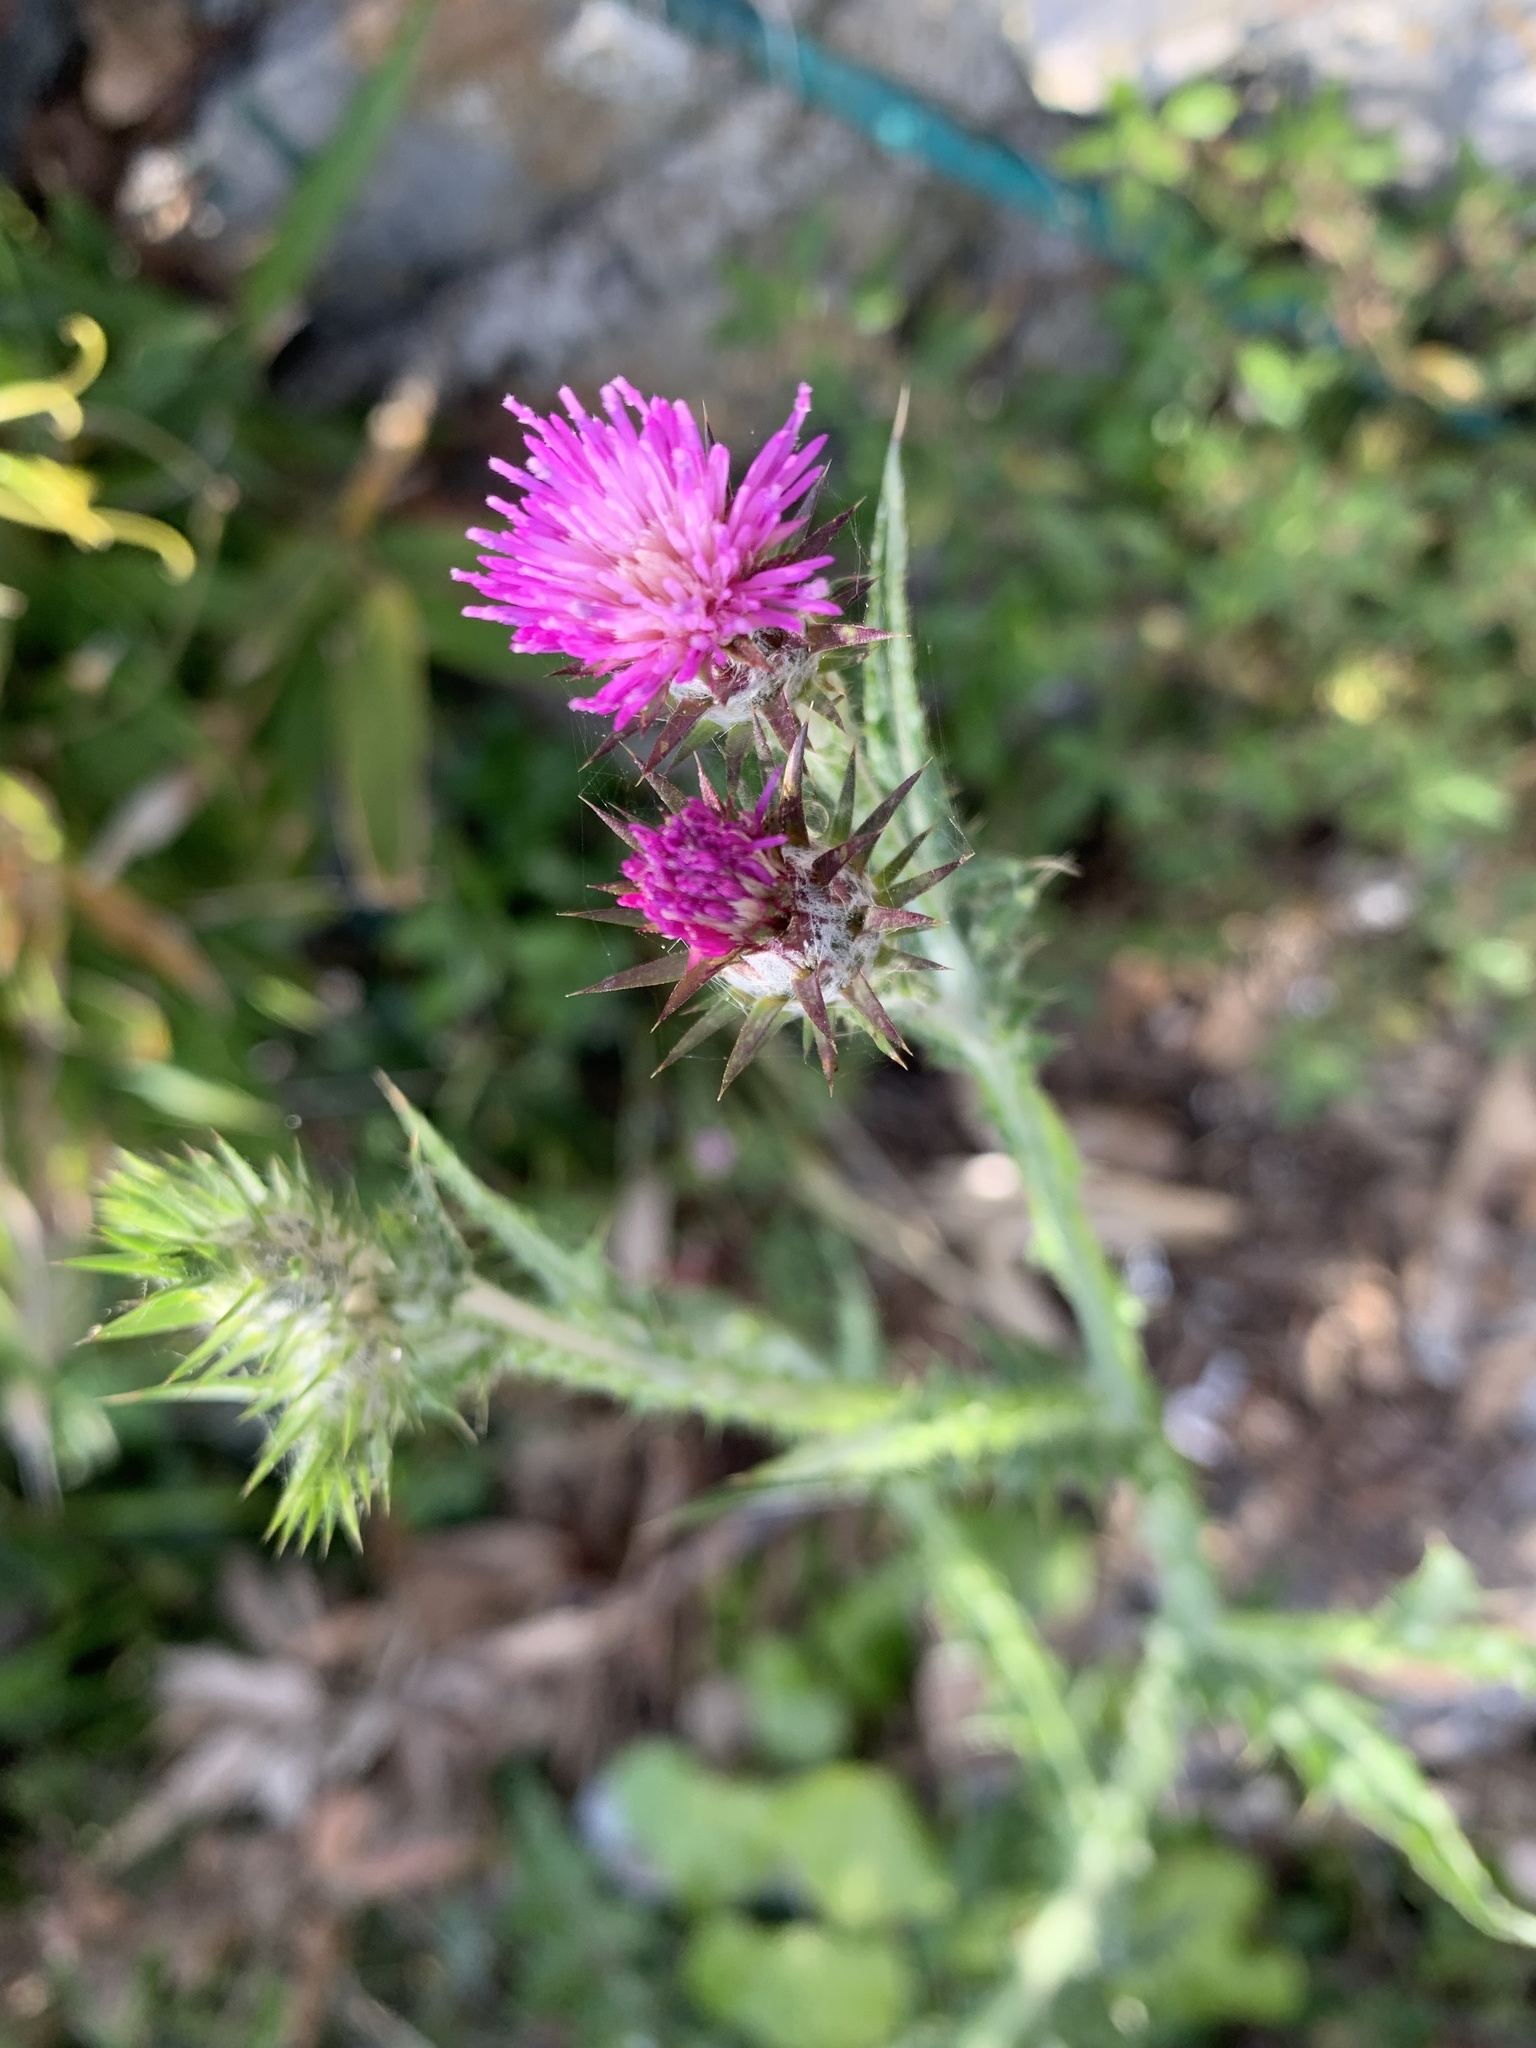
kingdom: Plantae
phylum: Tracheophyta
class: Magnoliopsida
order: Asterales
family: Asteraceae
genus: Carduus
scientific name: Carduus pycnocephalus
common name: Plymouth thistle
